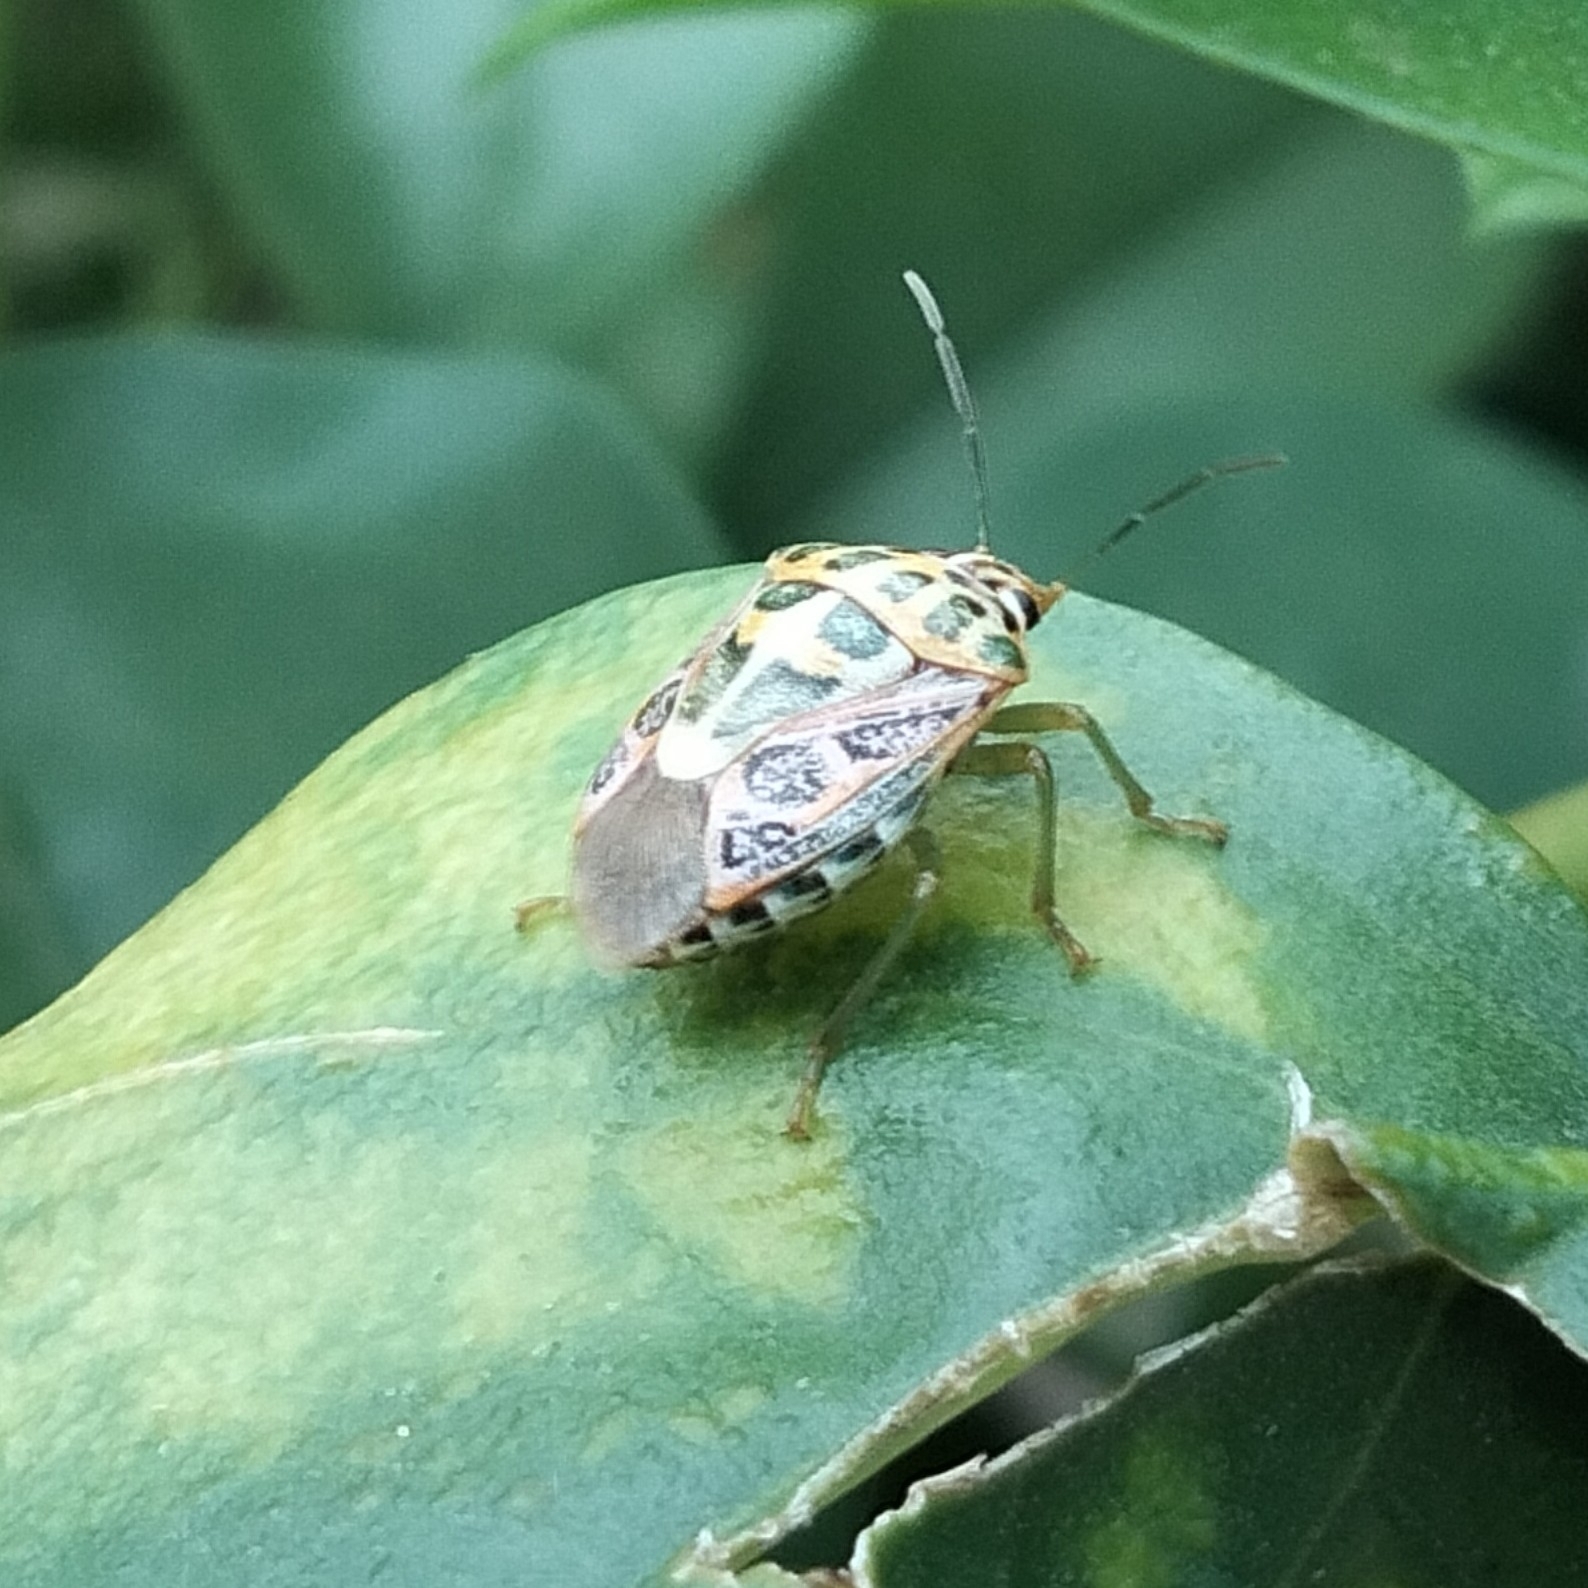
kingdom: Animalia
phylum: Arthropoda
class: Insecta
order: Hemiptera
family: Pentatomidae
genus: Antestiopsis
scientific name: Antestiopsis cruciata
